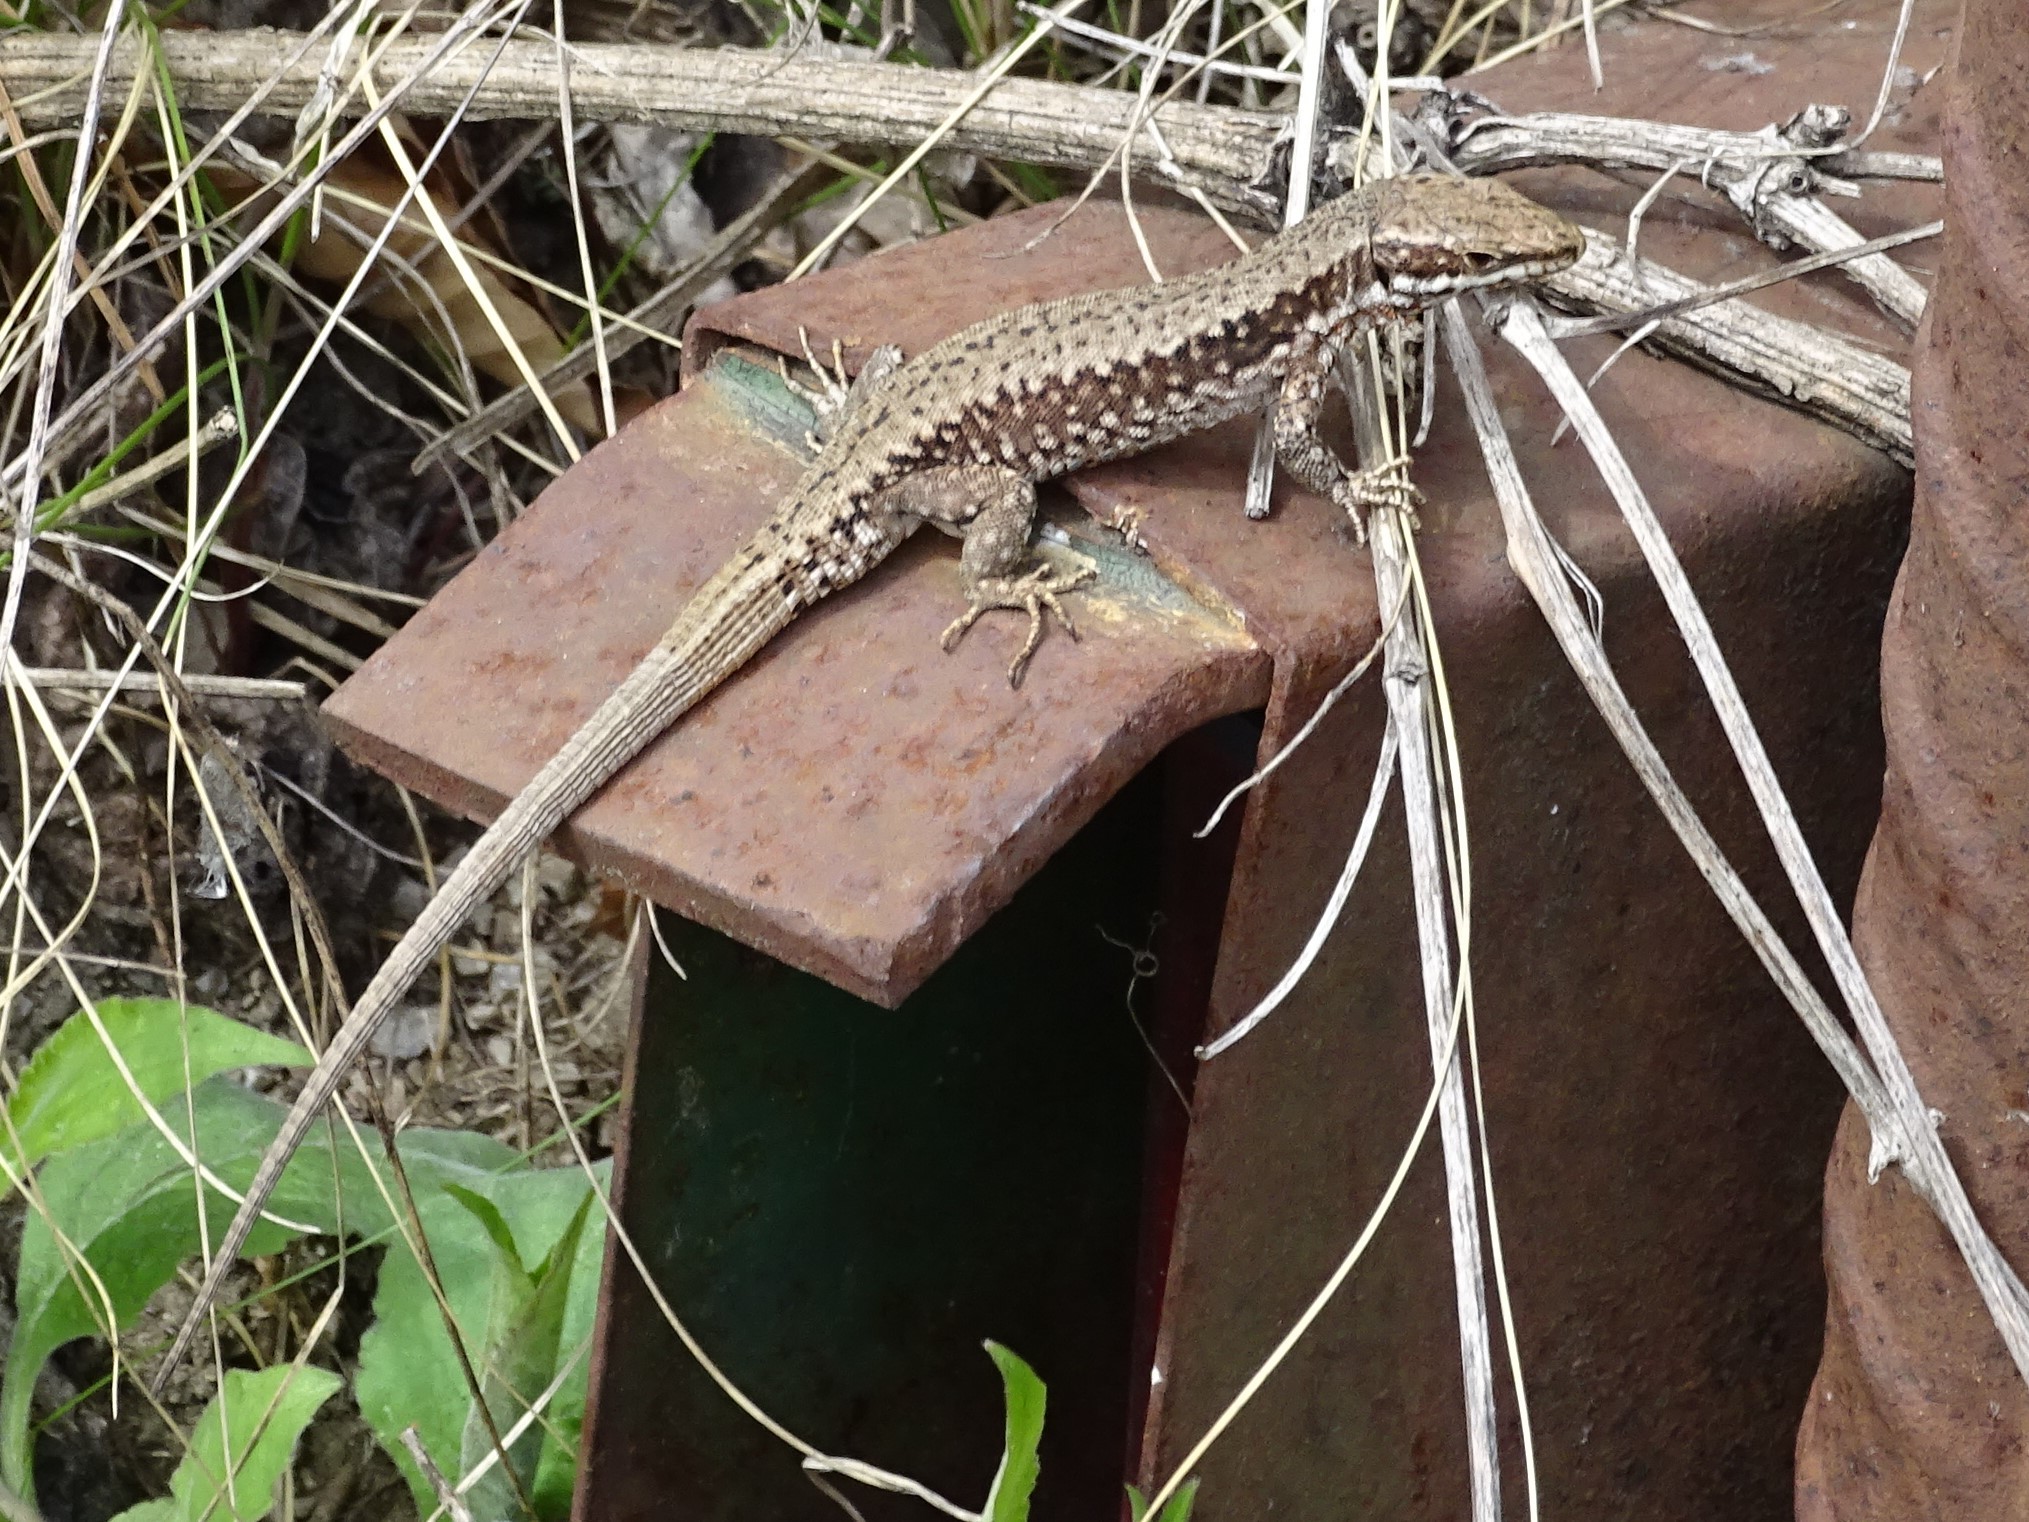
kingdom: Animalia
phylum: Chordata
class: Squamata
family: Lacertidae
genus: Podarcis
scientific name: Podarcis muralis
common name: Common wall lizard
